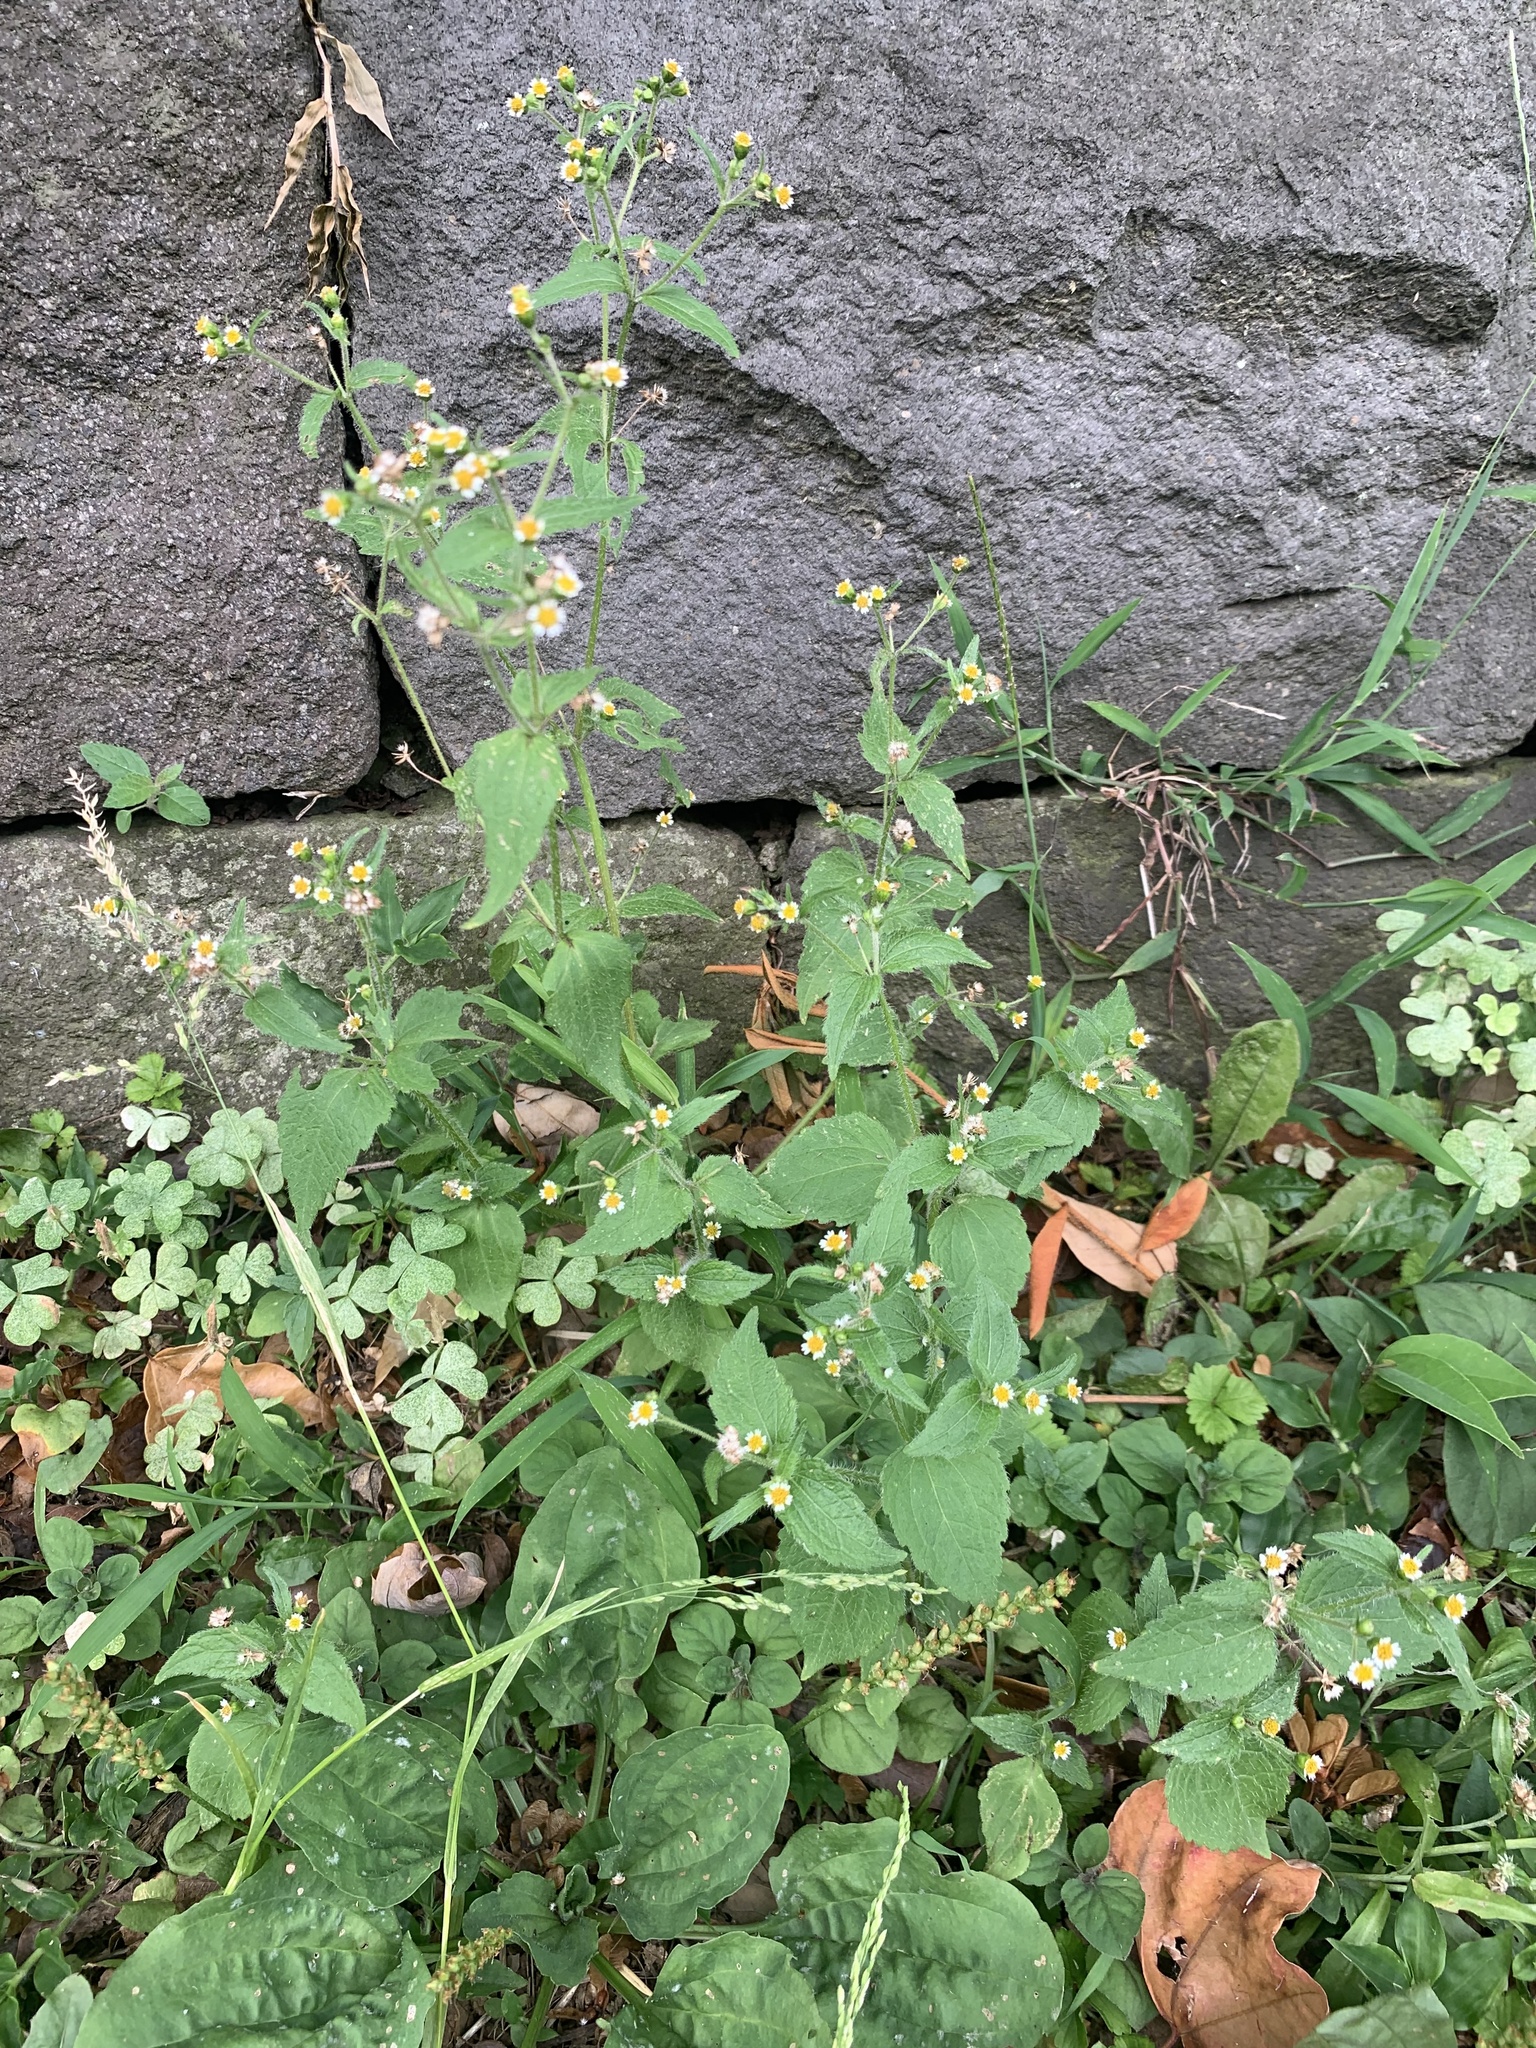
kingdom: Plantae
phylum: Tracheophyta
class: Magnoliopsida
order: Asterales
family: Asteraceae
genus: Galinsoga
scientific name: Galinsoga quadriradiata
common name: Shaggy soldier
